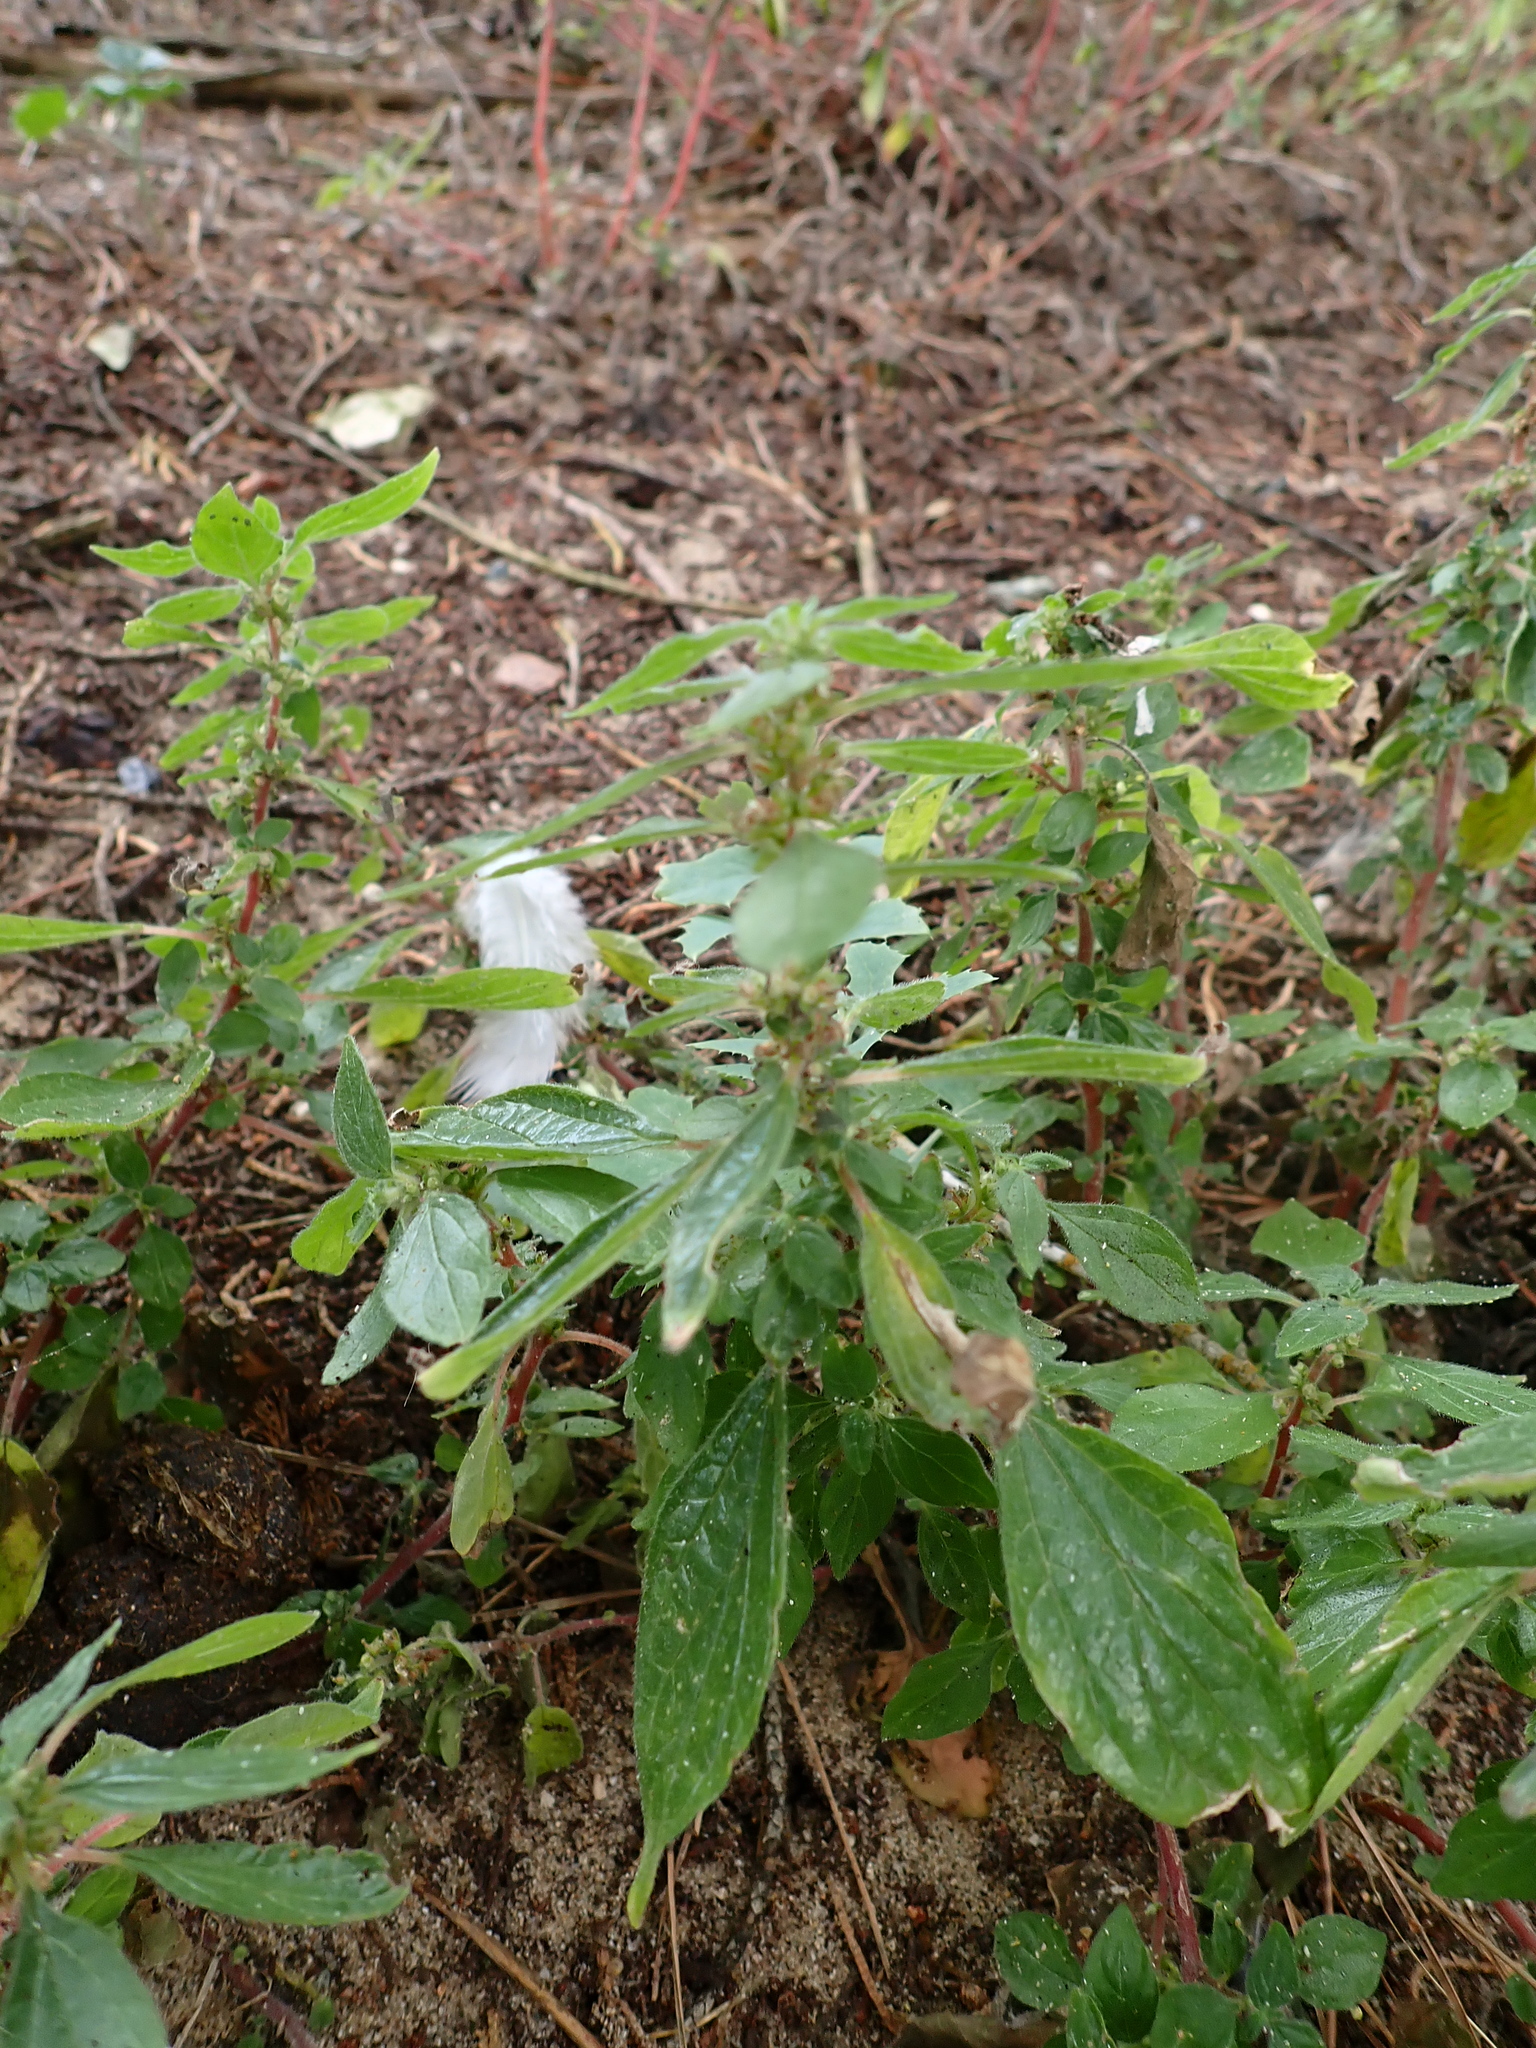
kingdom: Plantae
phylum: Tracheophyta
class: Magnoliopsida
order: Rosales
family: Urticaceae
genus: Parietaria
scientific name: Parietaria judaica
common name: Pellitory-of-the-wall
